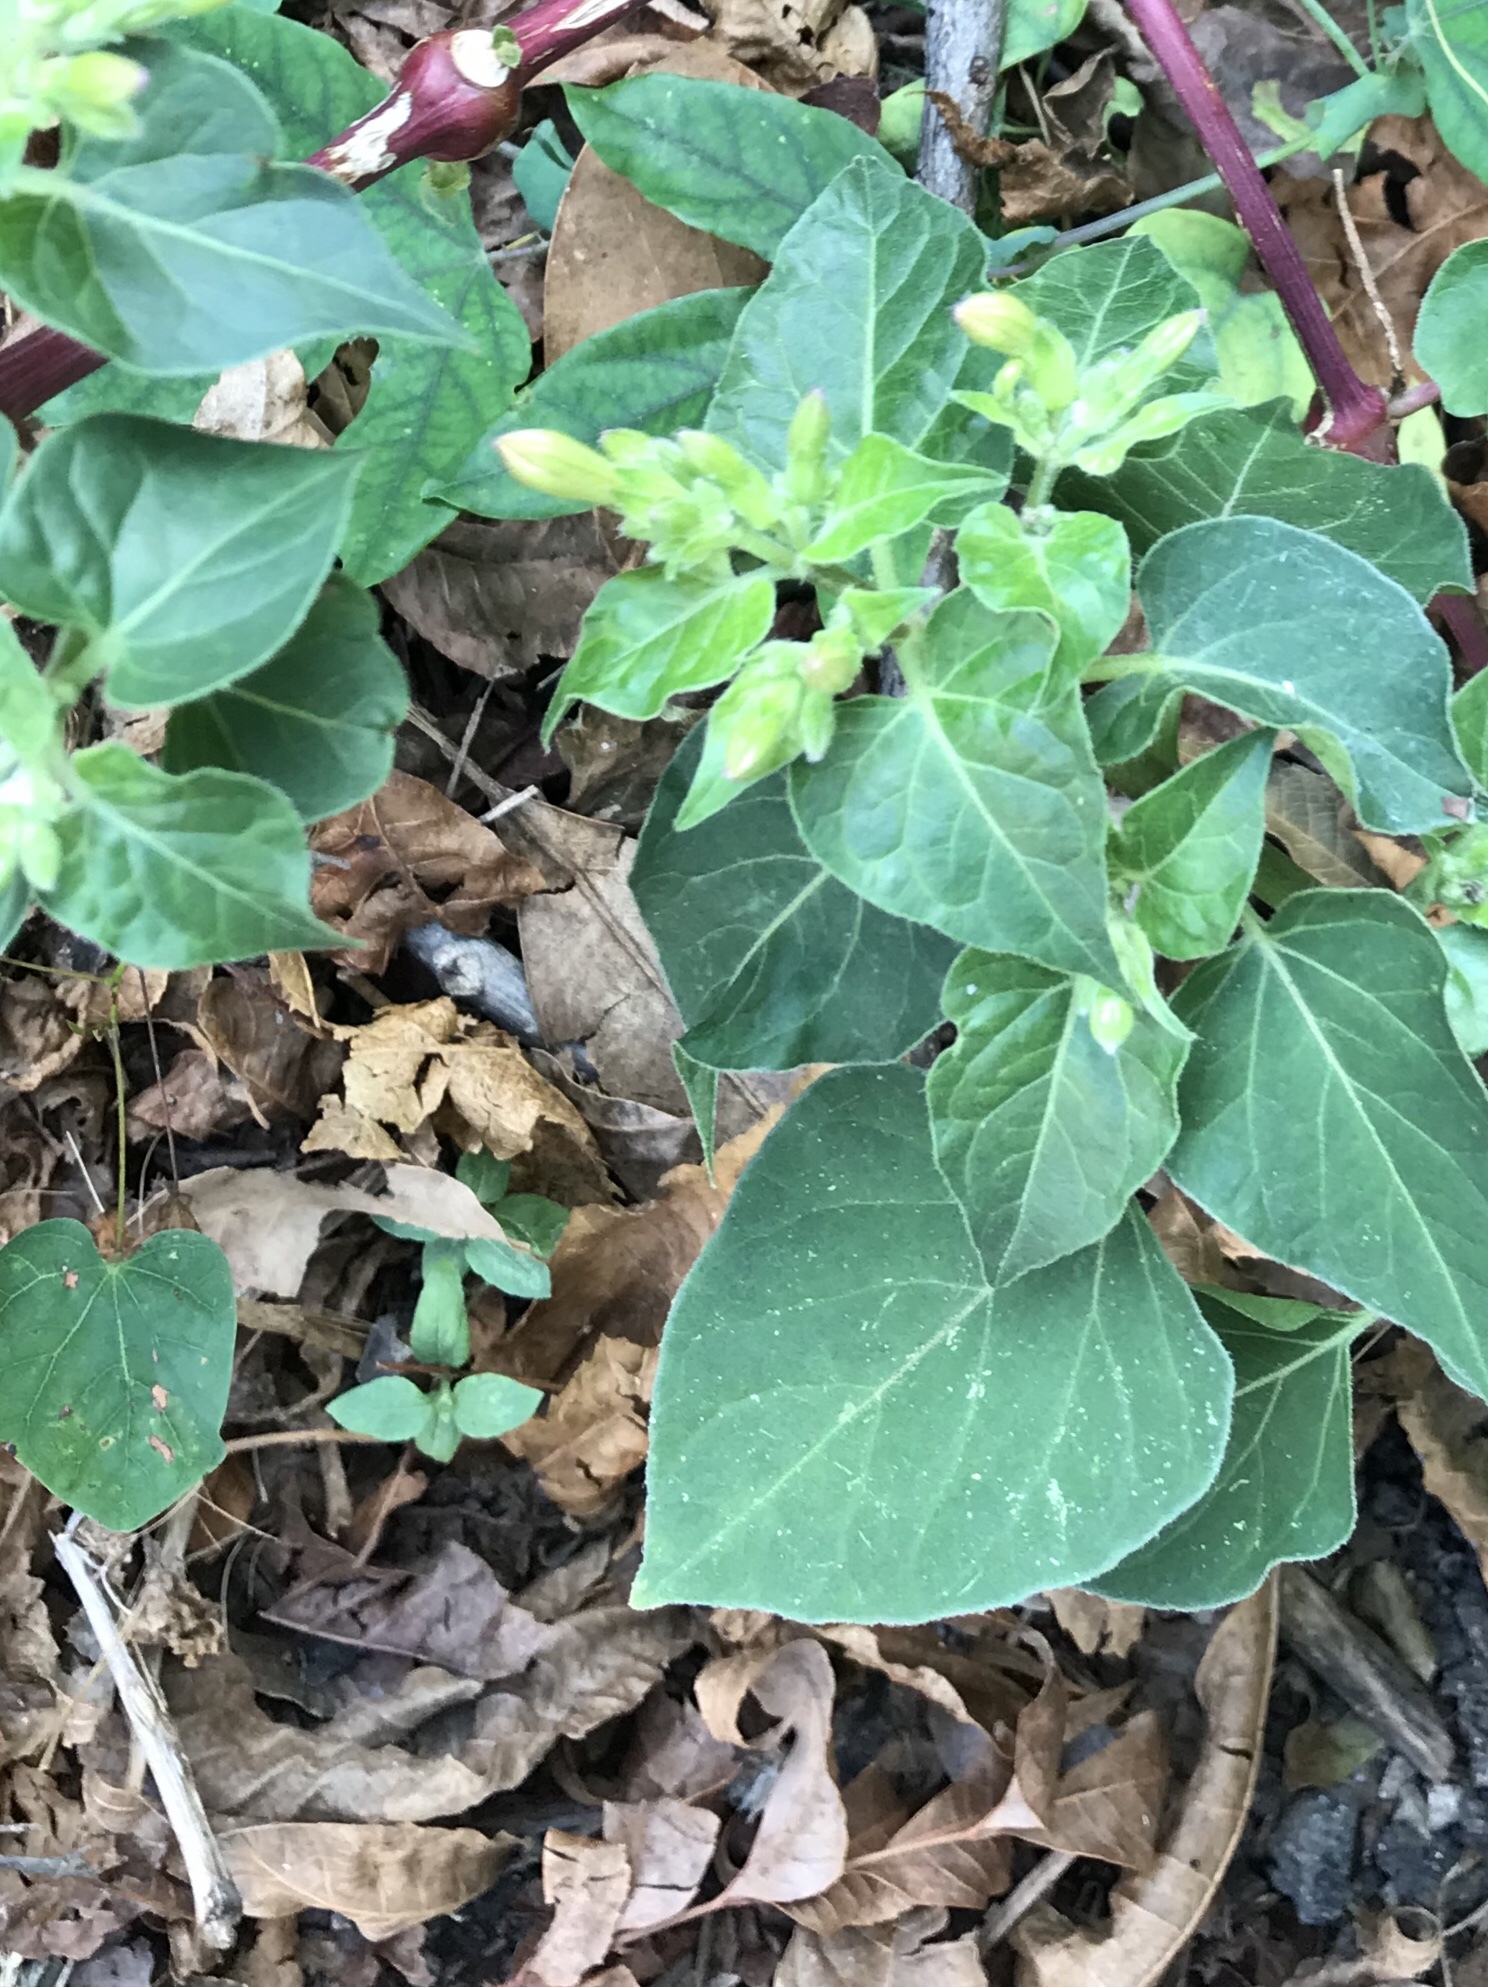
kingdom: Plantae
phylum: Tracheophyta
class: Magnoliopsida
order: Caryophyllales
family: Nyctaginaceae
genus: Mirabilis
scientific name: Mirabilis jalapa
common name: Marvel-of-peru
